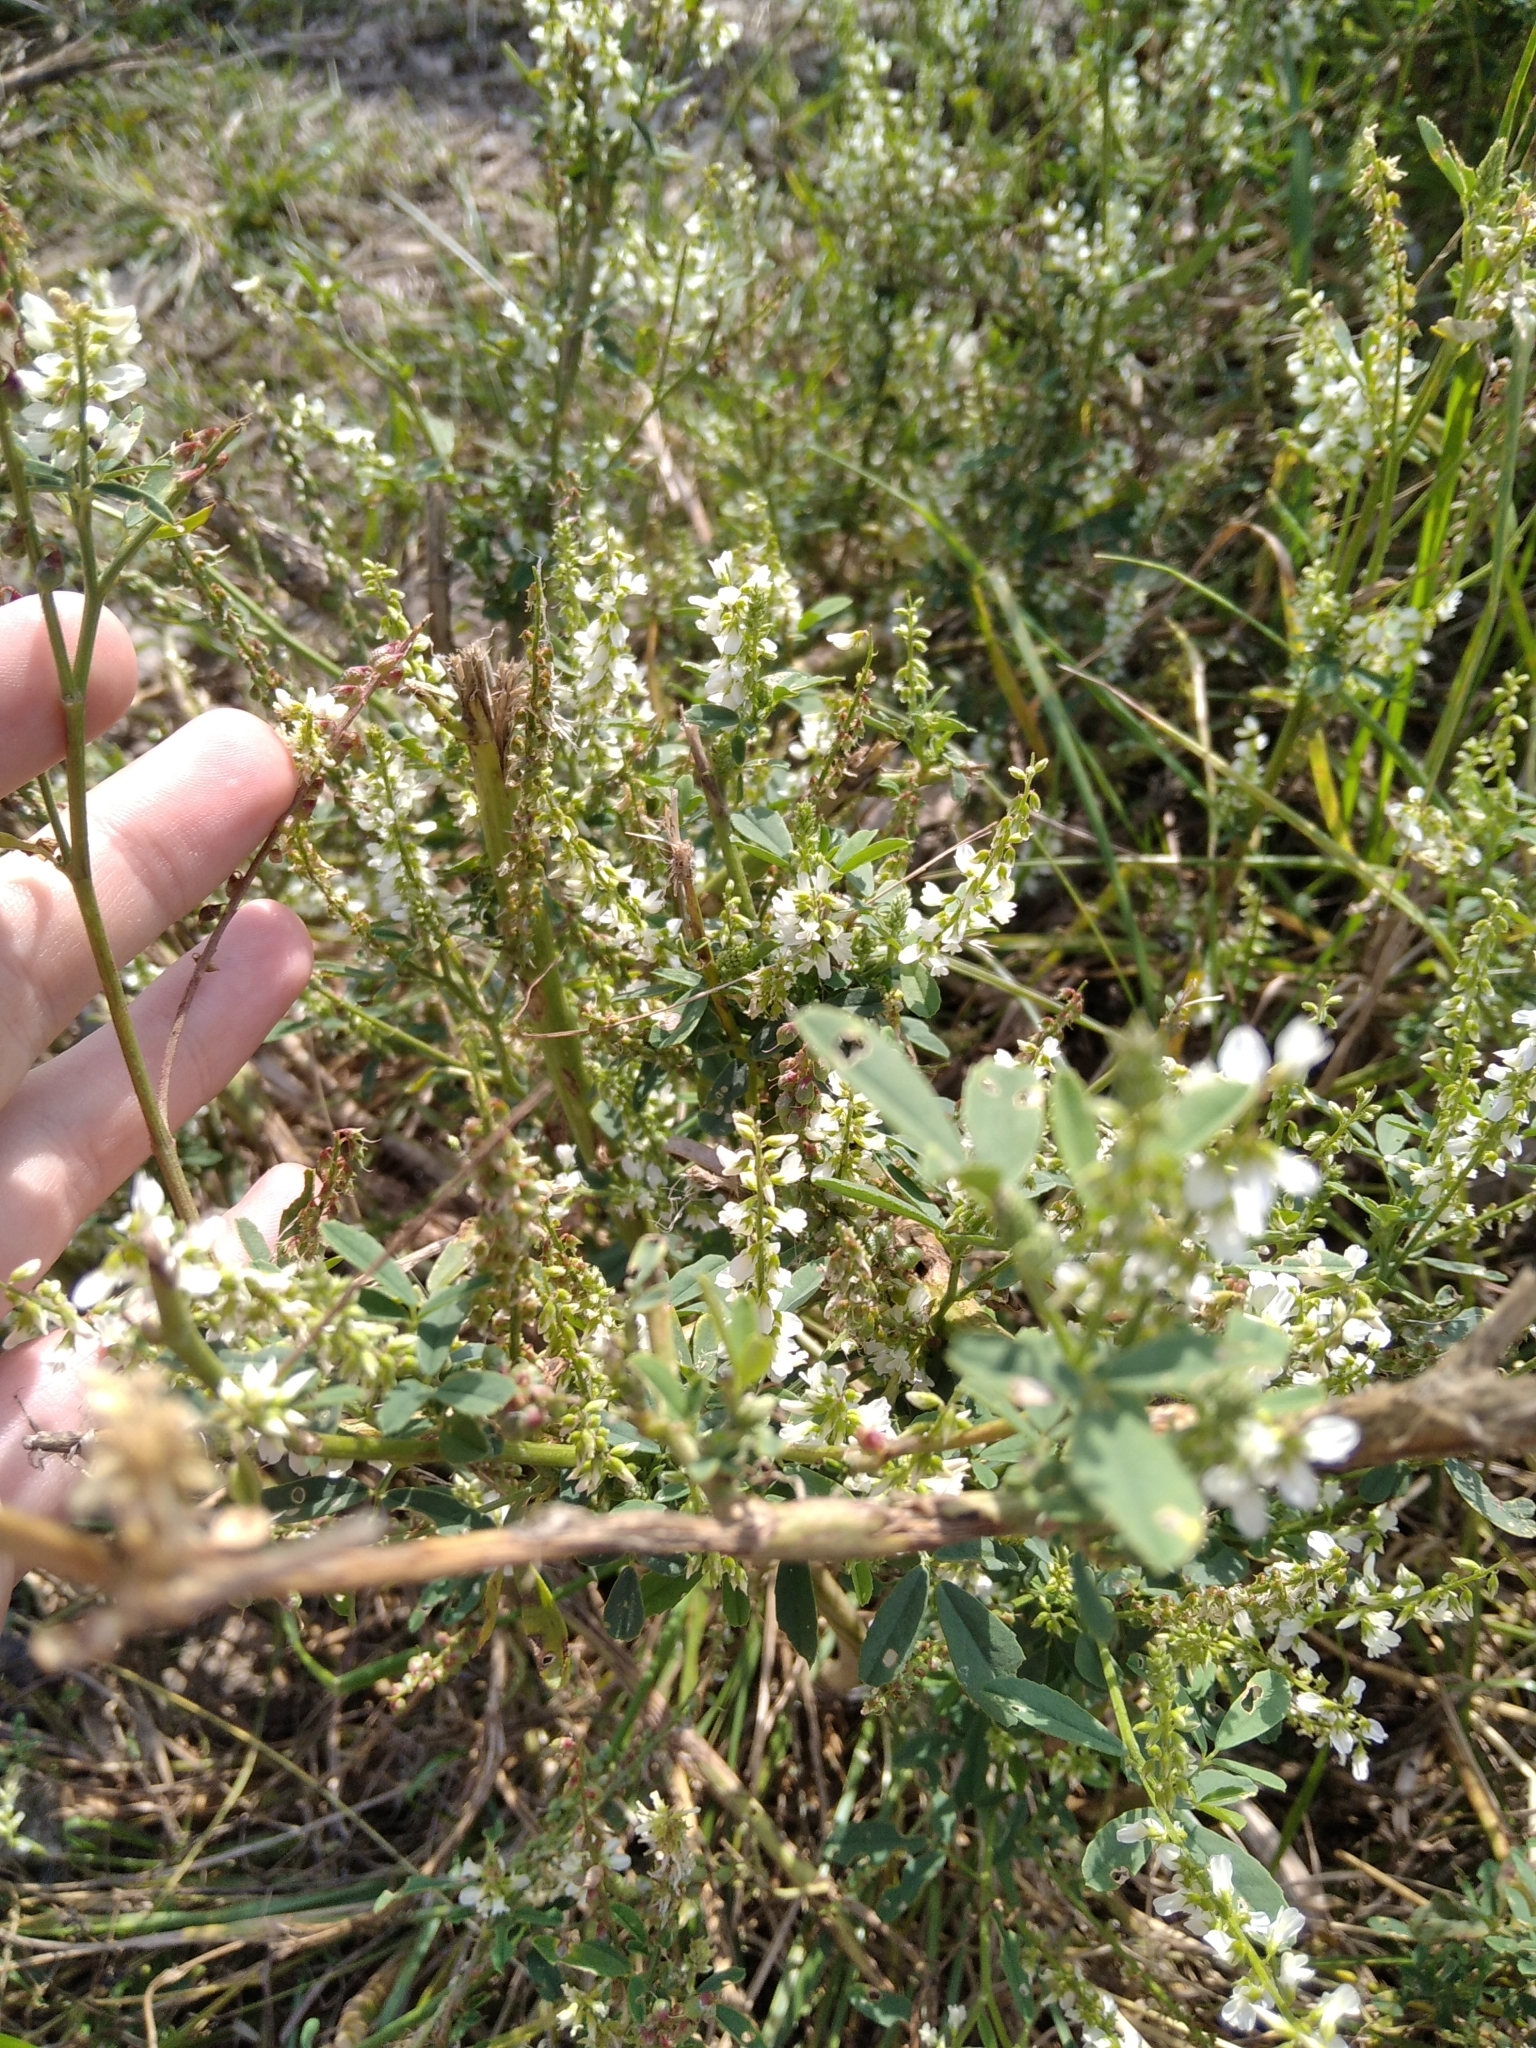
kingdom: Plantae
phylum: Tracheophyta
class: Magnoliopsida
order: Fabales
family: Fabaceae
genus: Melilotus
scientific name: Melilotus albus
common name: White melilot
